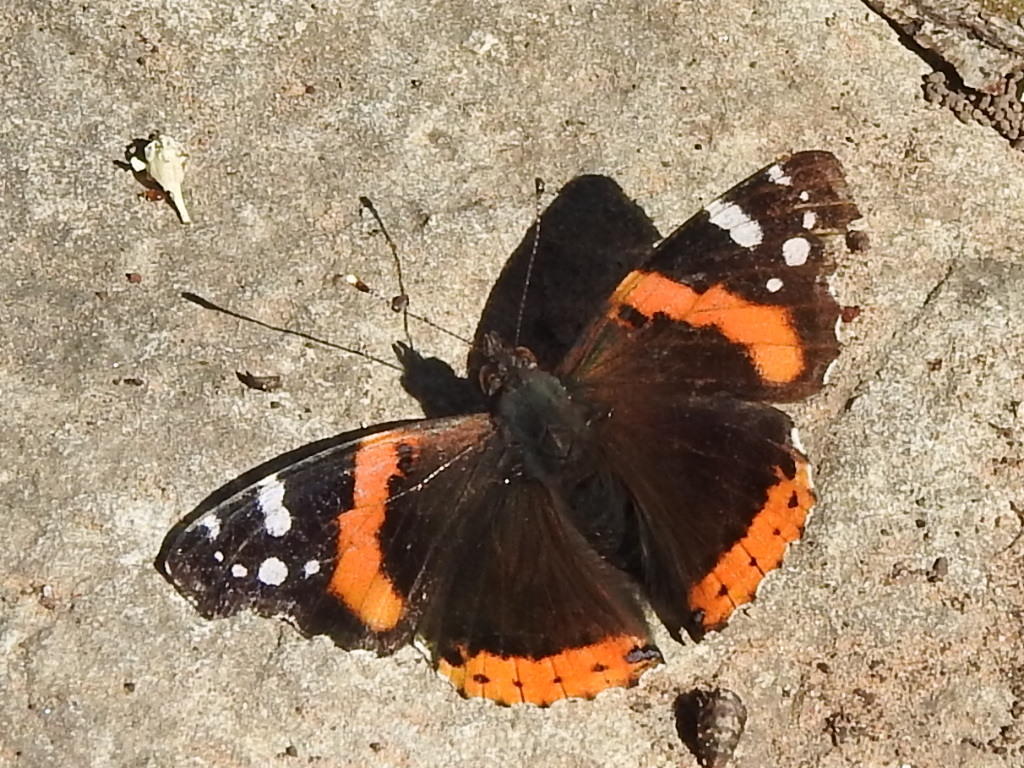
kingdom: Animalia
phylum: Arthropoda
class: Insecta
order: Lepidoptera
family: Nymphalidae
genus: Vanessa
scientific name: Vanessa atalanta
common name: Red admiral
